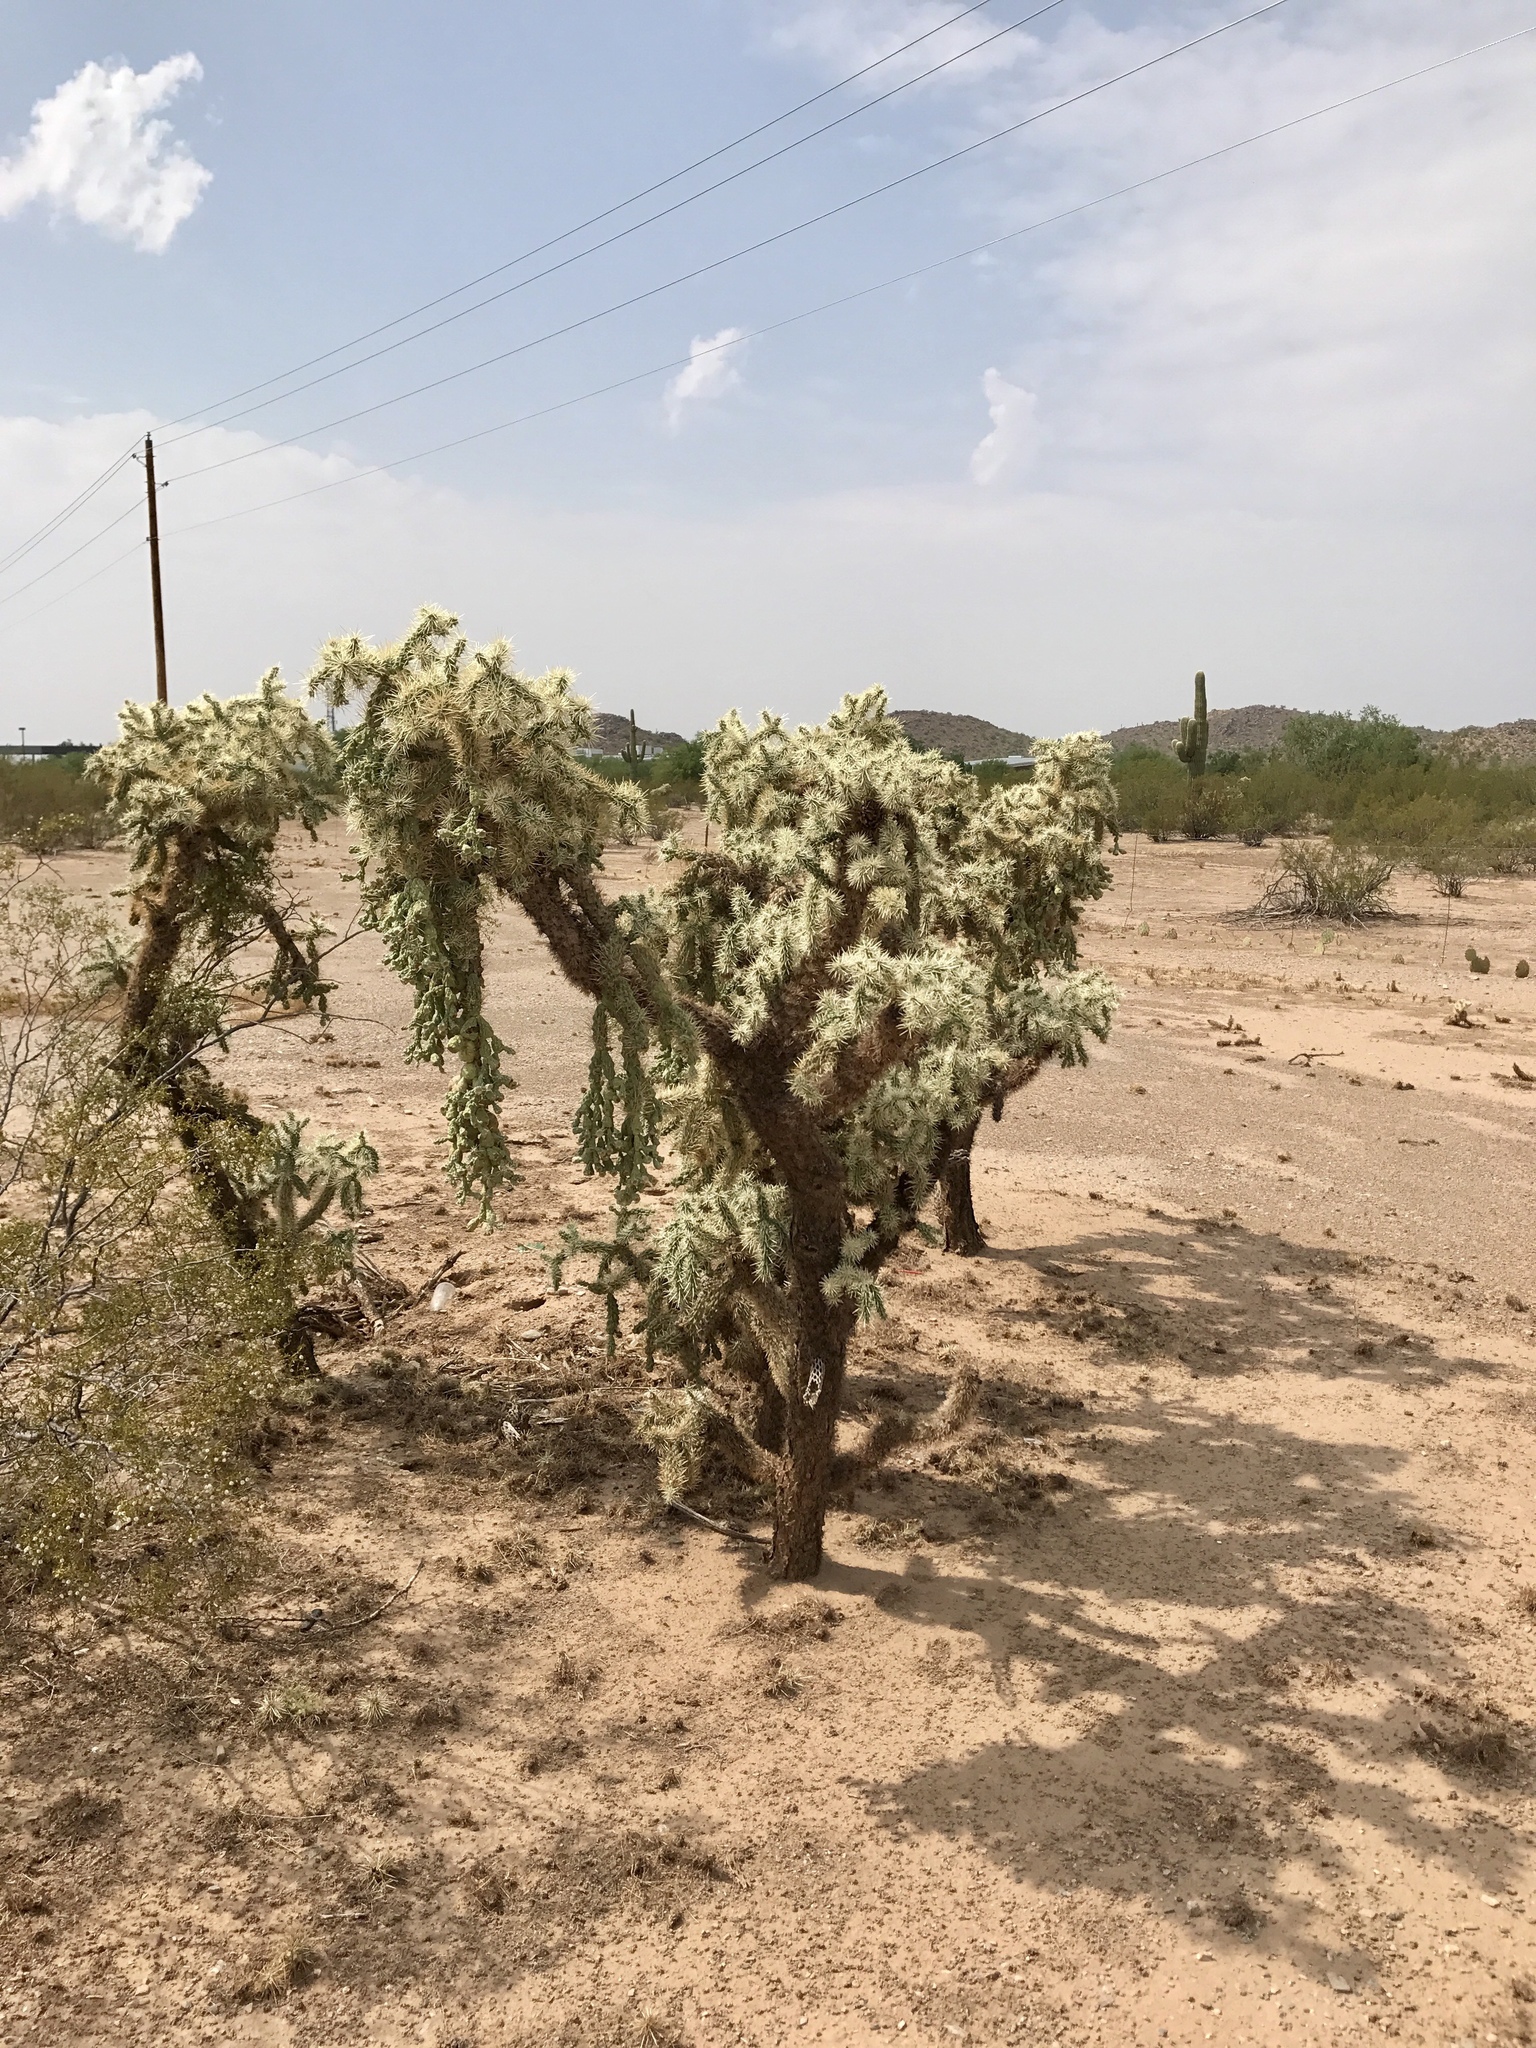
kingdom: Plantae
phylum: Tracheophyta
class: Magnoliopsida
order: Caryophyllales
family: Cactaceae
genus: Cylindropuntia
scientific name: Cylindropuntia fulgida
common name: Jumping cholla
